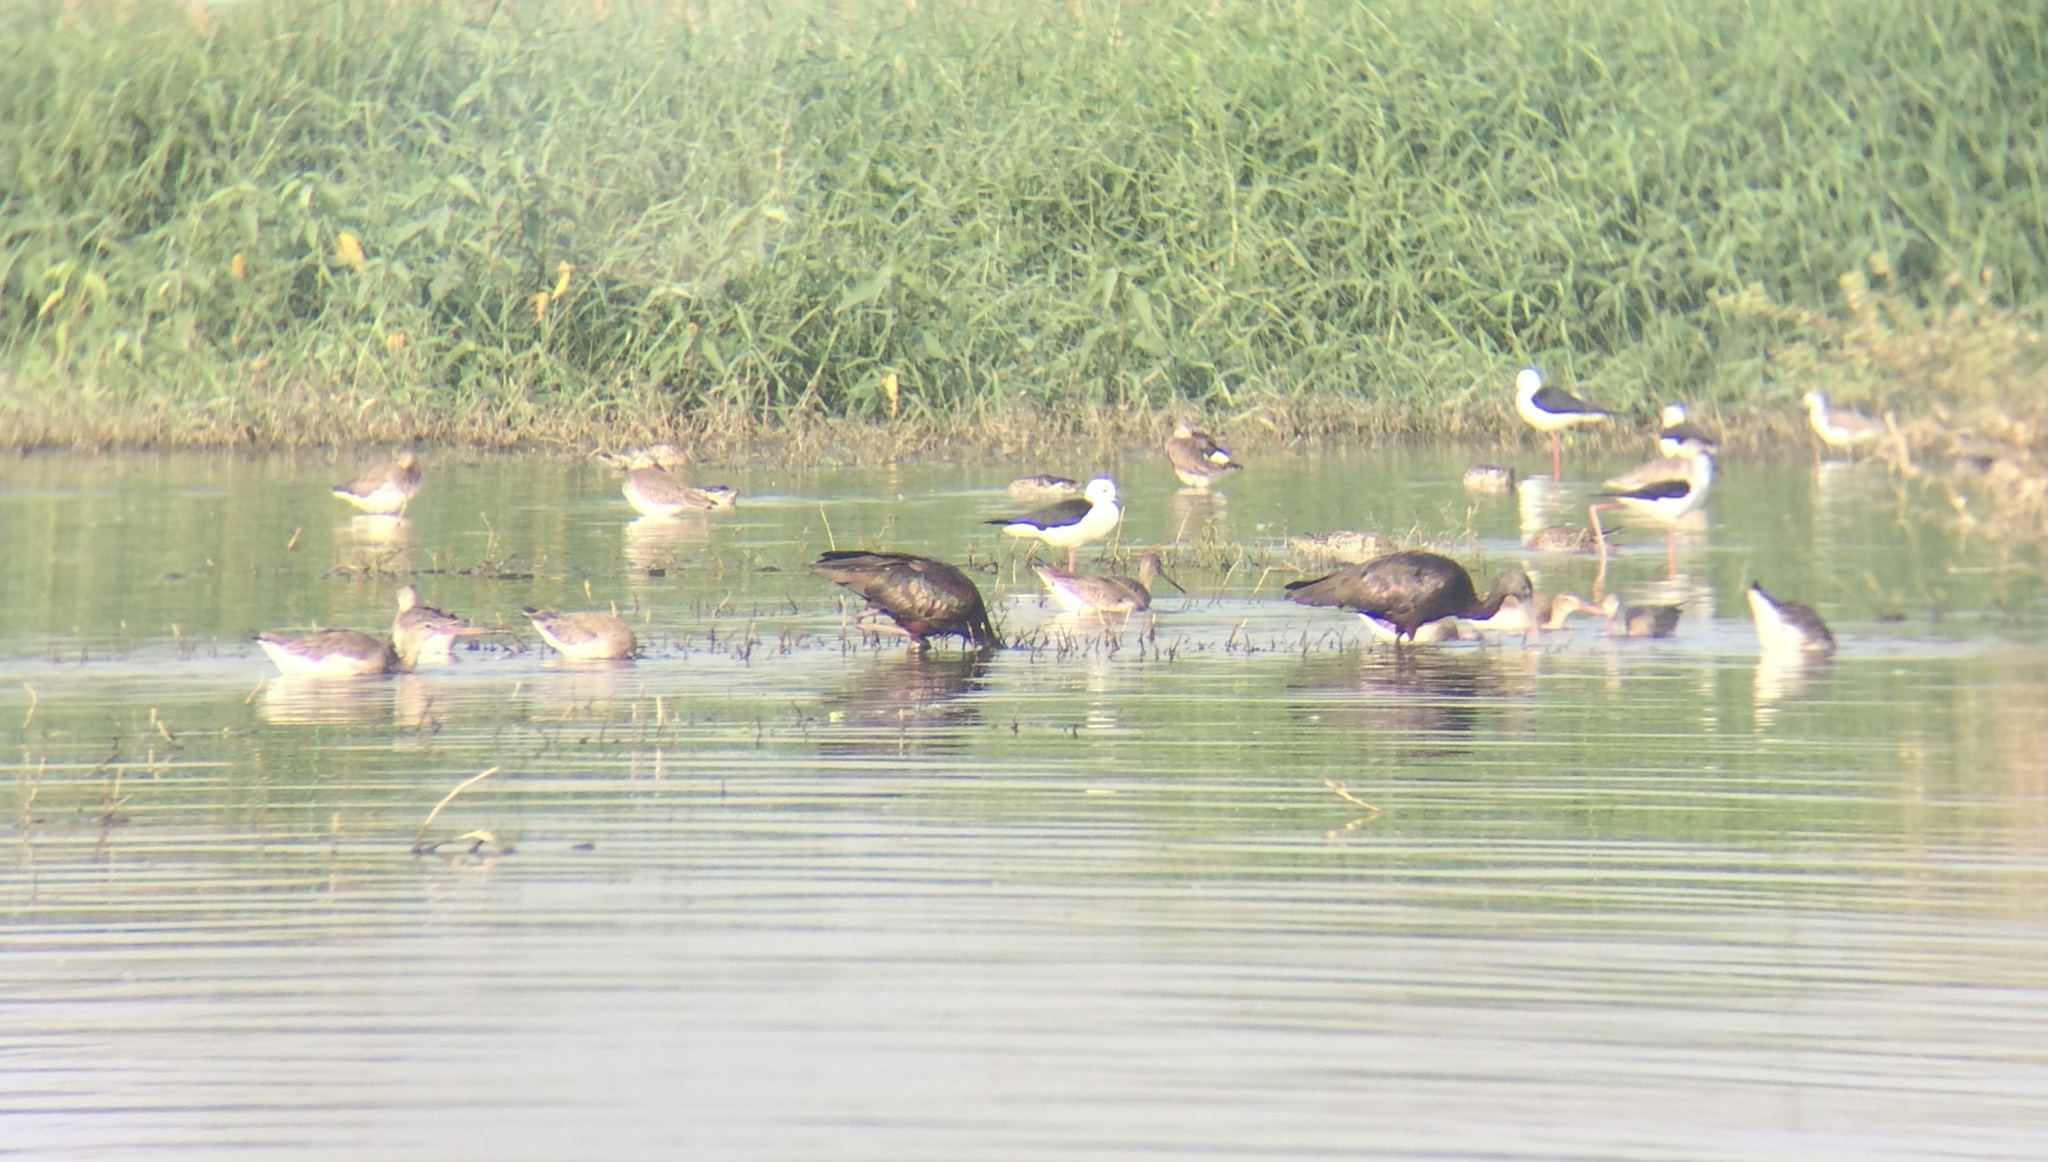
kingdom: Animalia
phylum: Chordata
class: Aves
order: Charadriiformes
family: Recurvirostridae
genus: Himantopus
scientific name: Himantopus himantopus
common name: Black-winged stilt
